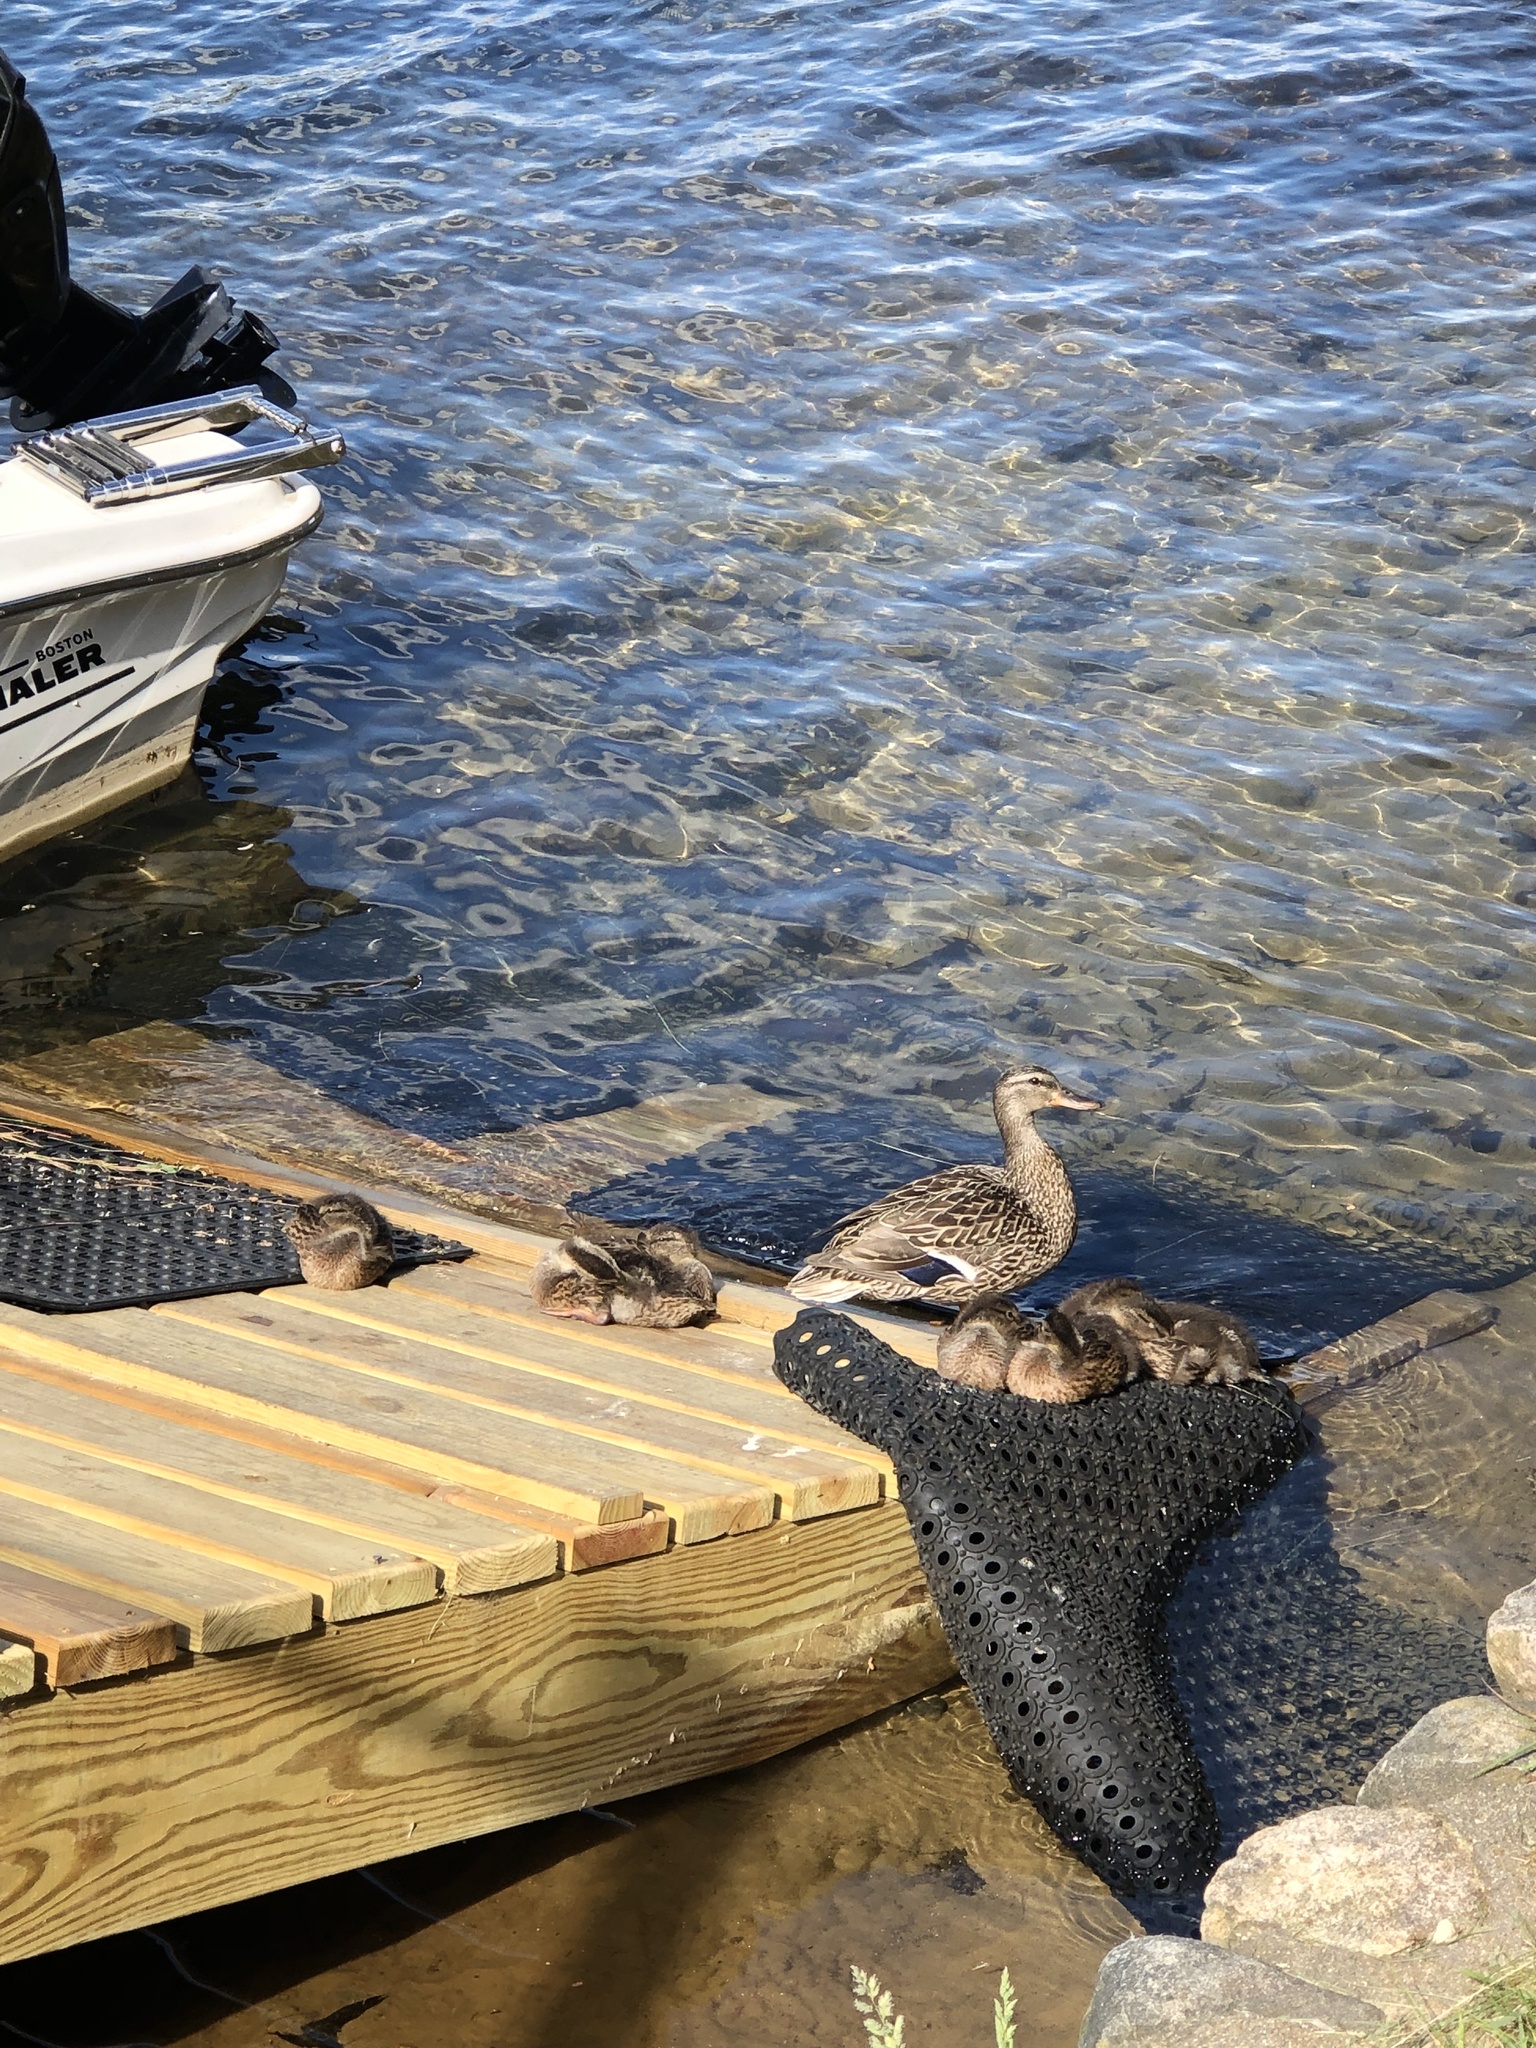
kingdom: Animalia
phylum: Chordata
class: Aves
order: Anseriformes
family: Anatidae
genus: Anas
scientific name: Anas platyrhynchos
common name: Mallard
